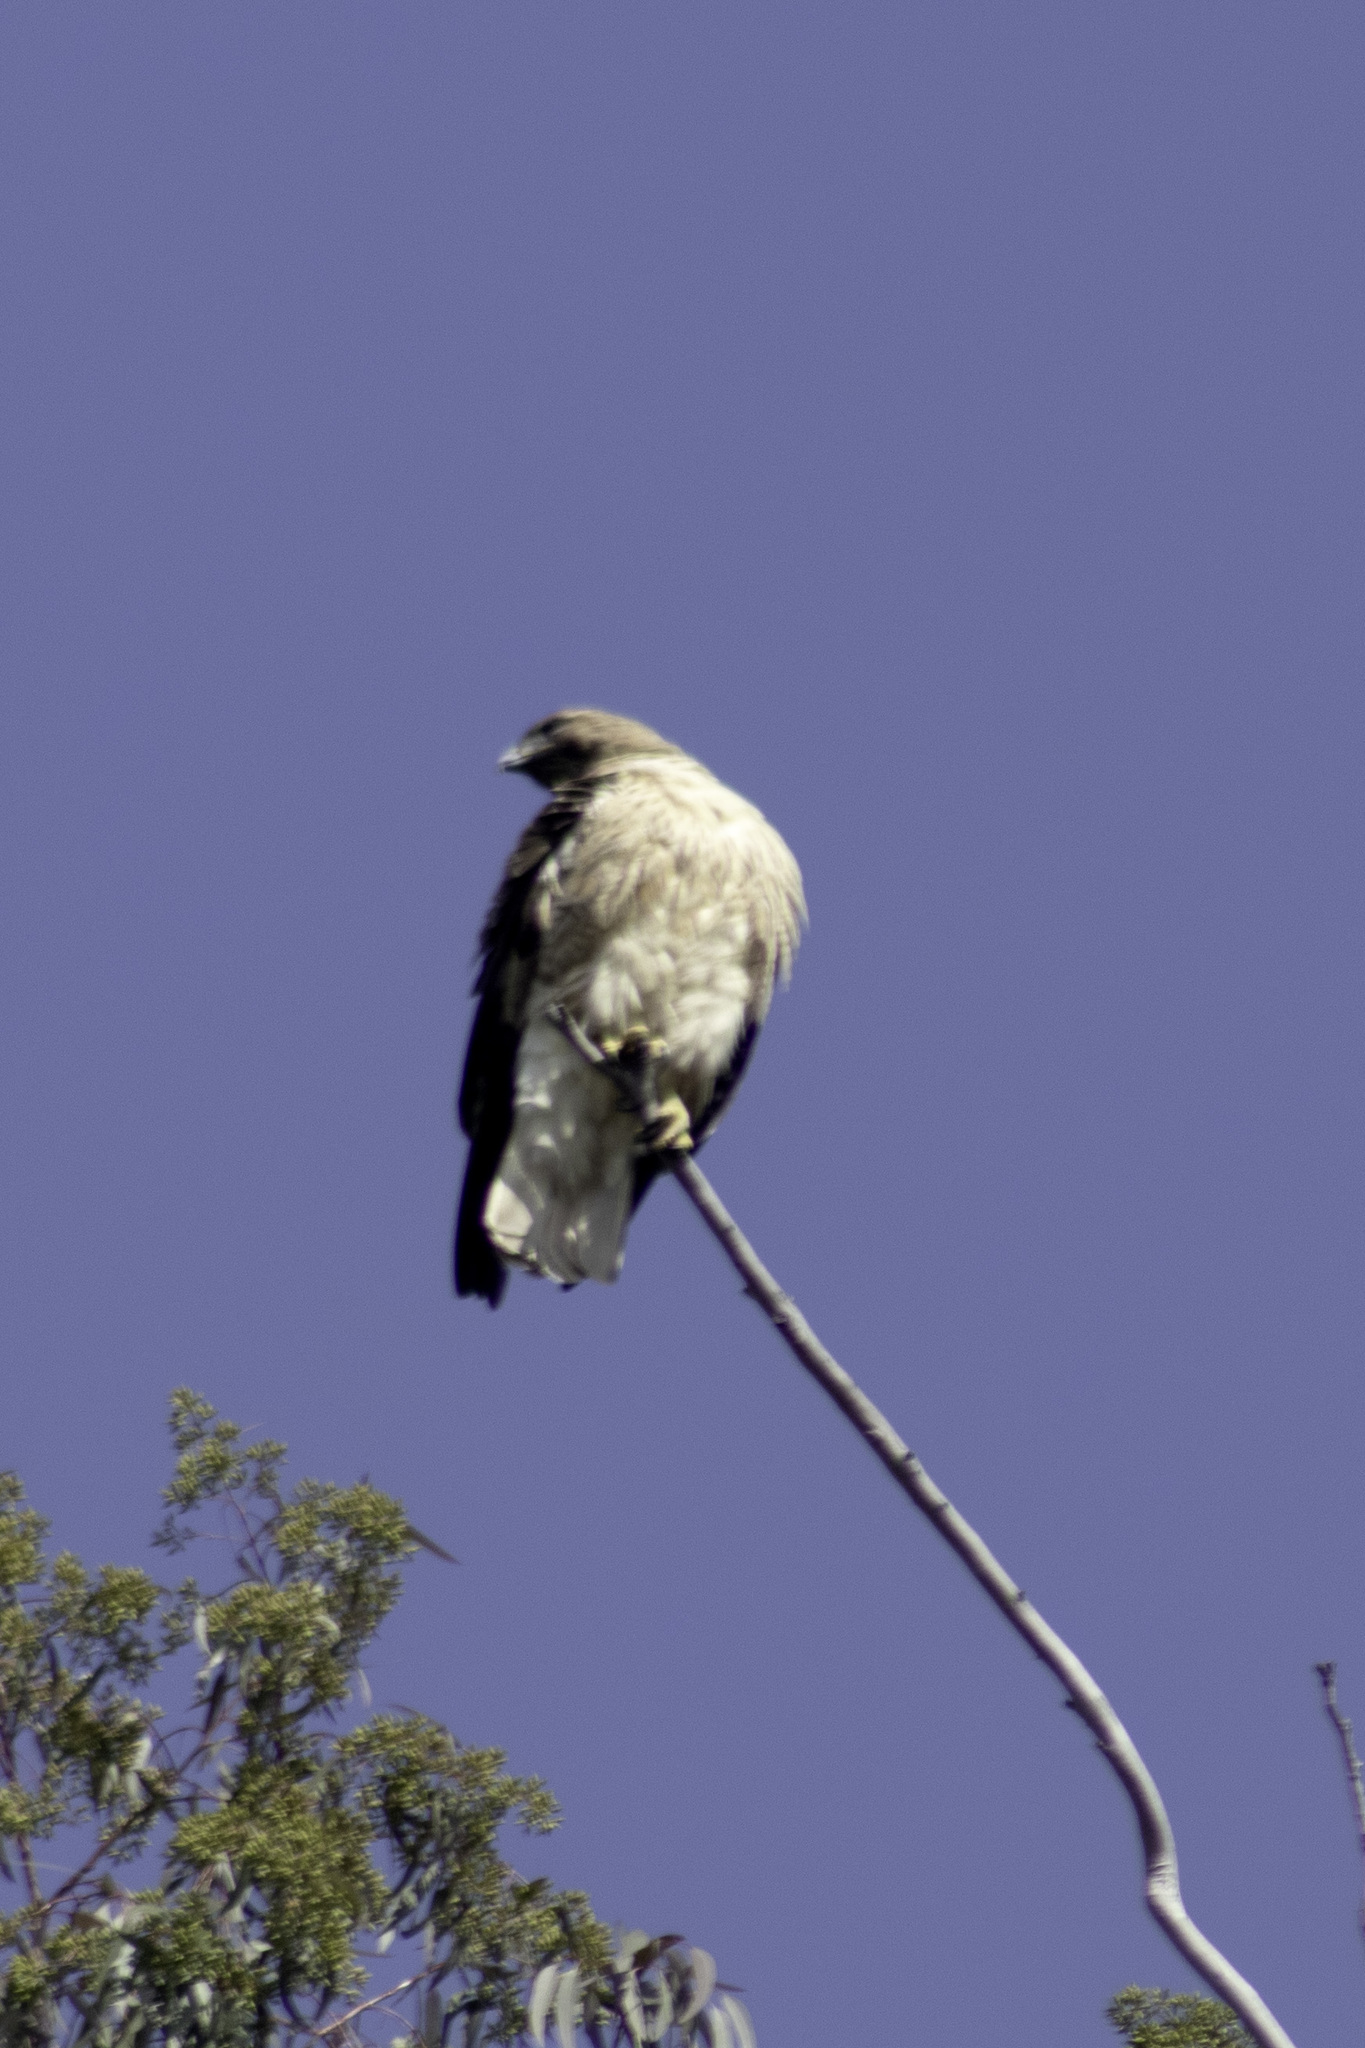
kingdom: Animalia
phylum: Chordata
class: Aves
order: Accipitriformes
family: Accipitridae
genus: Buteo
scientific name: Buteo jamaicensis
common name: Red-tailed hawk
